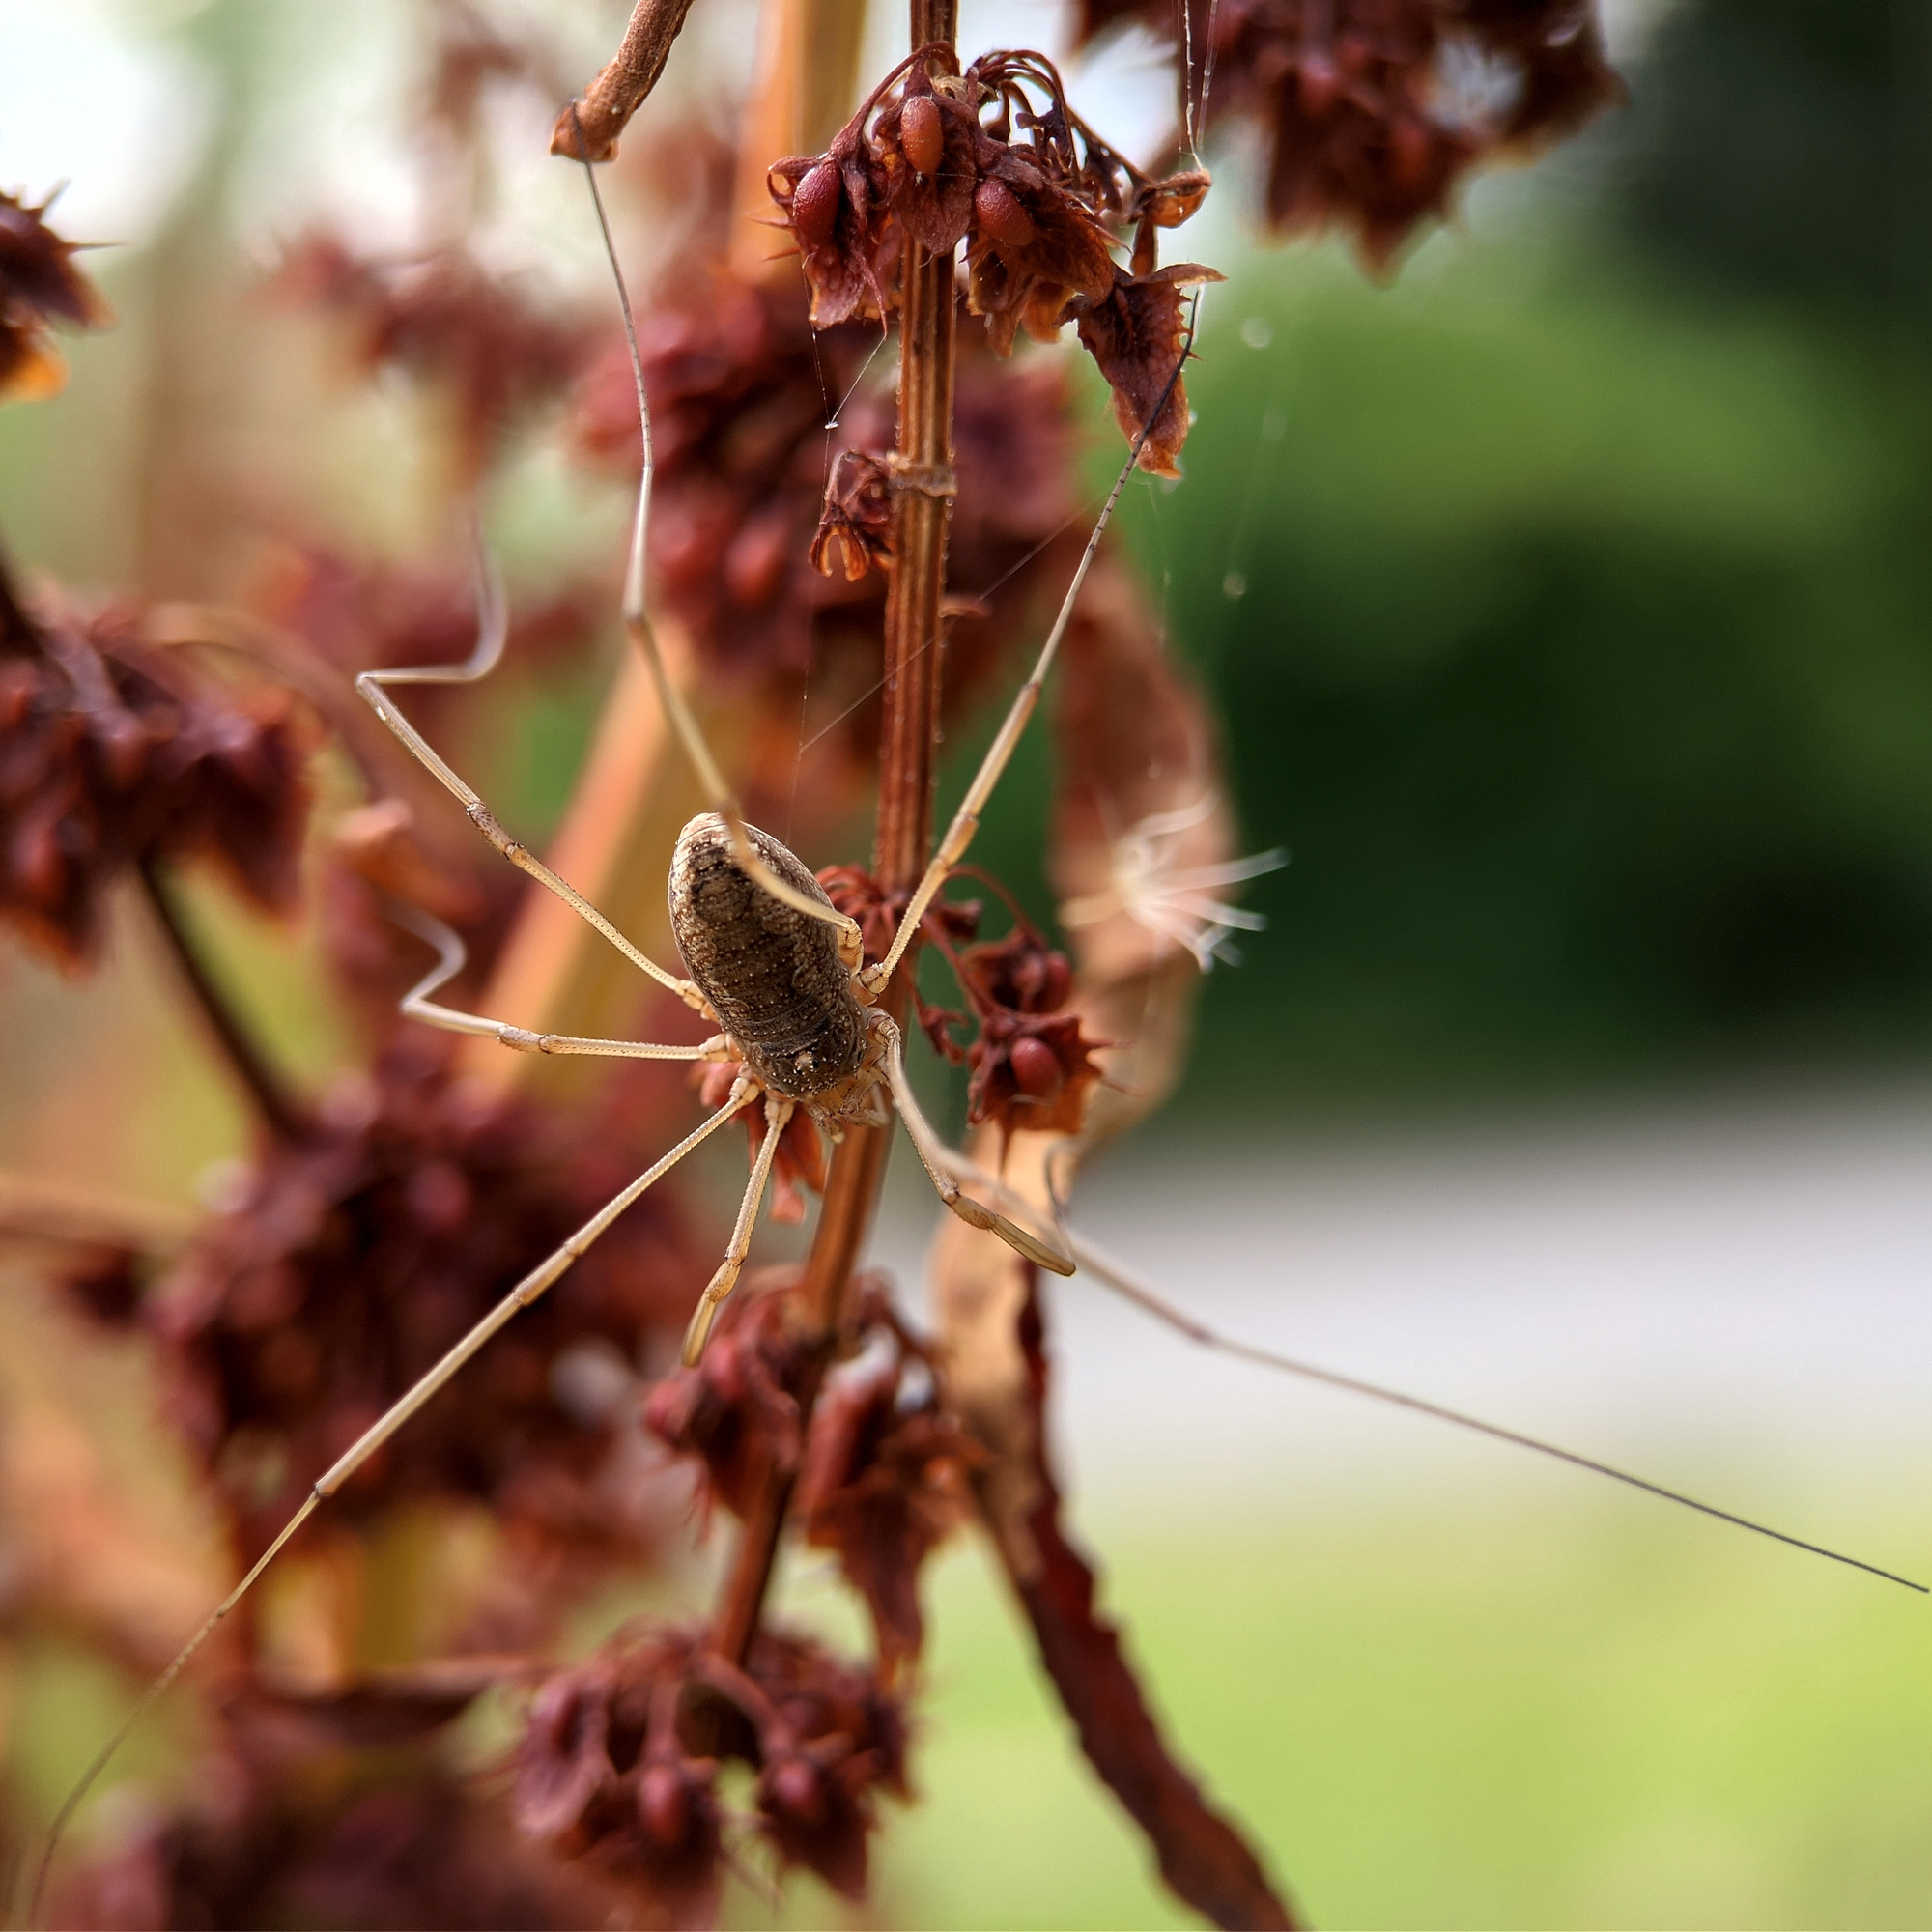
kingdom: Animalia
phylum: Arthropoda
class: Arachnida
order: Opiliones
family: Phalangiidae
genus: Phalangium
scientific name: Phalangium opilio
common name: Daddy longleg
